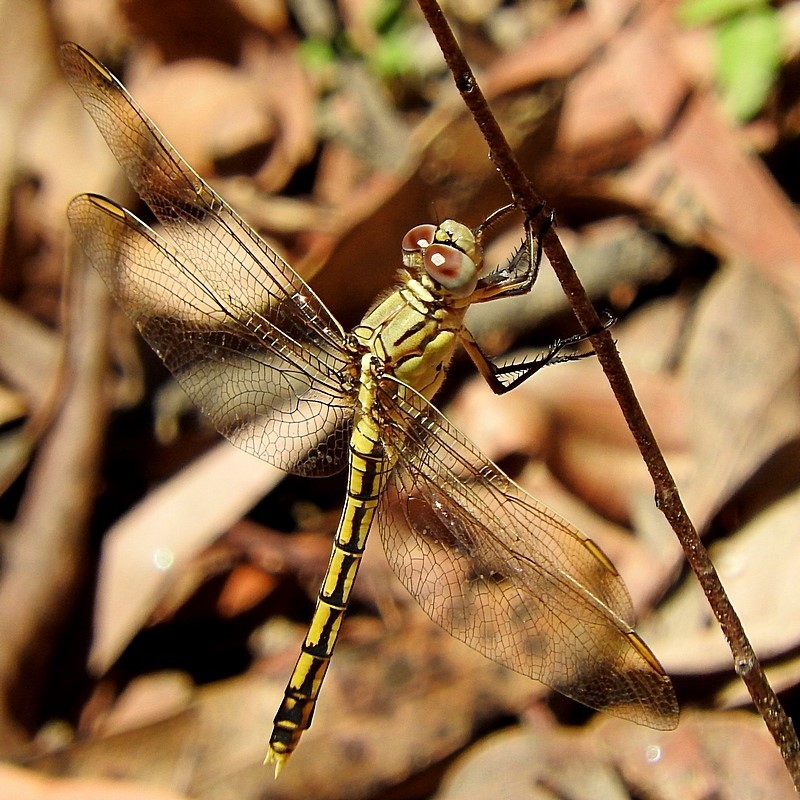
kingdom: Animalia
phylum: Arthropoda
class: Insecta
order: Odonata
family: Libellulidae
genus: Orthetrum
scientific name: Orthetrum caledonicum
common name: Blue skimmer
